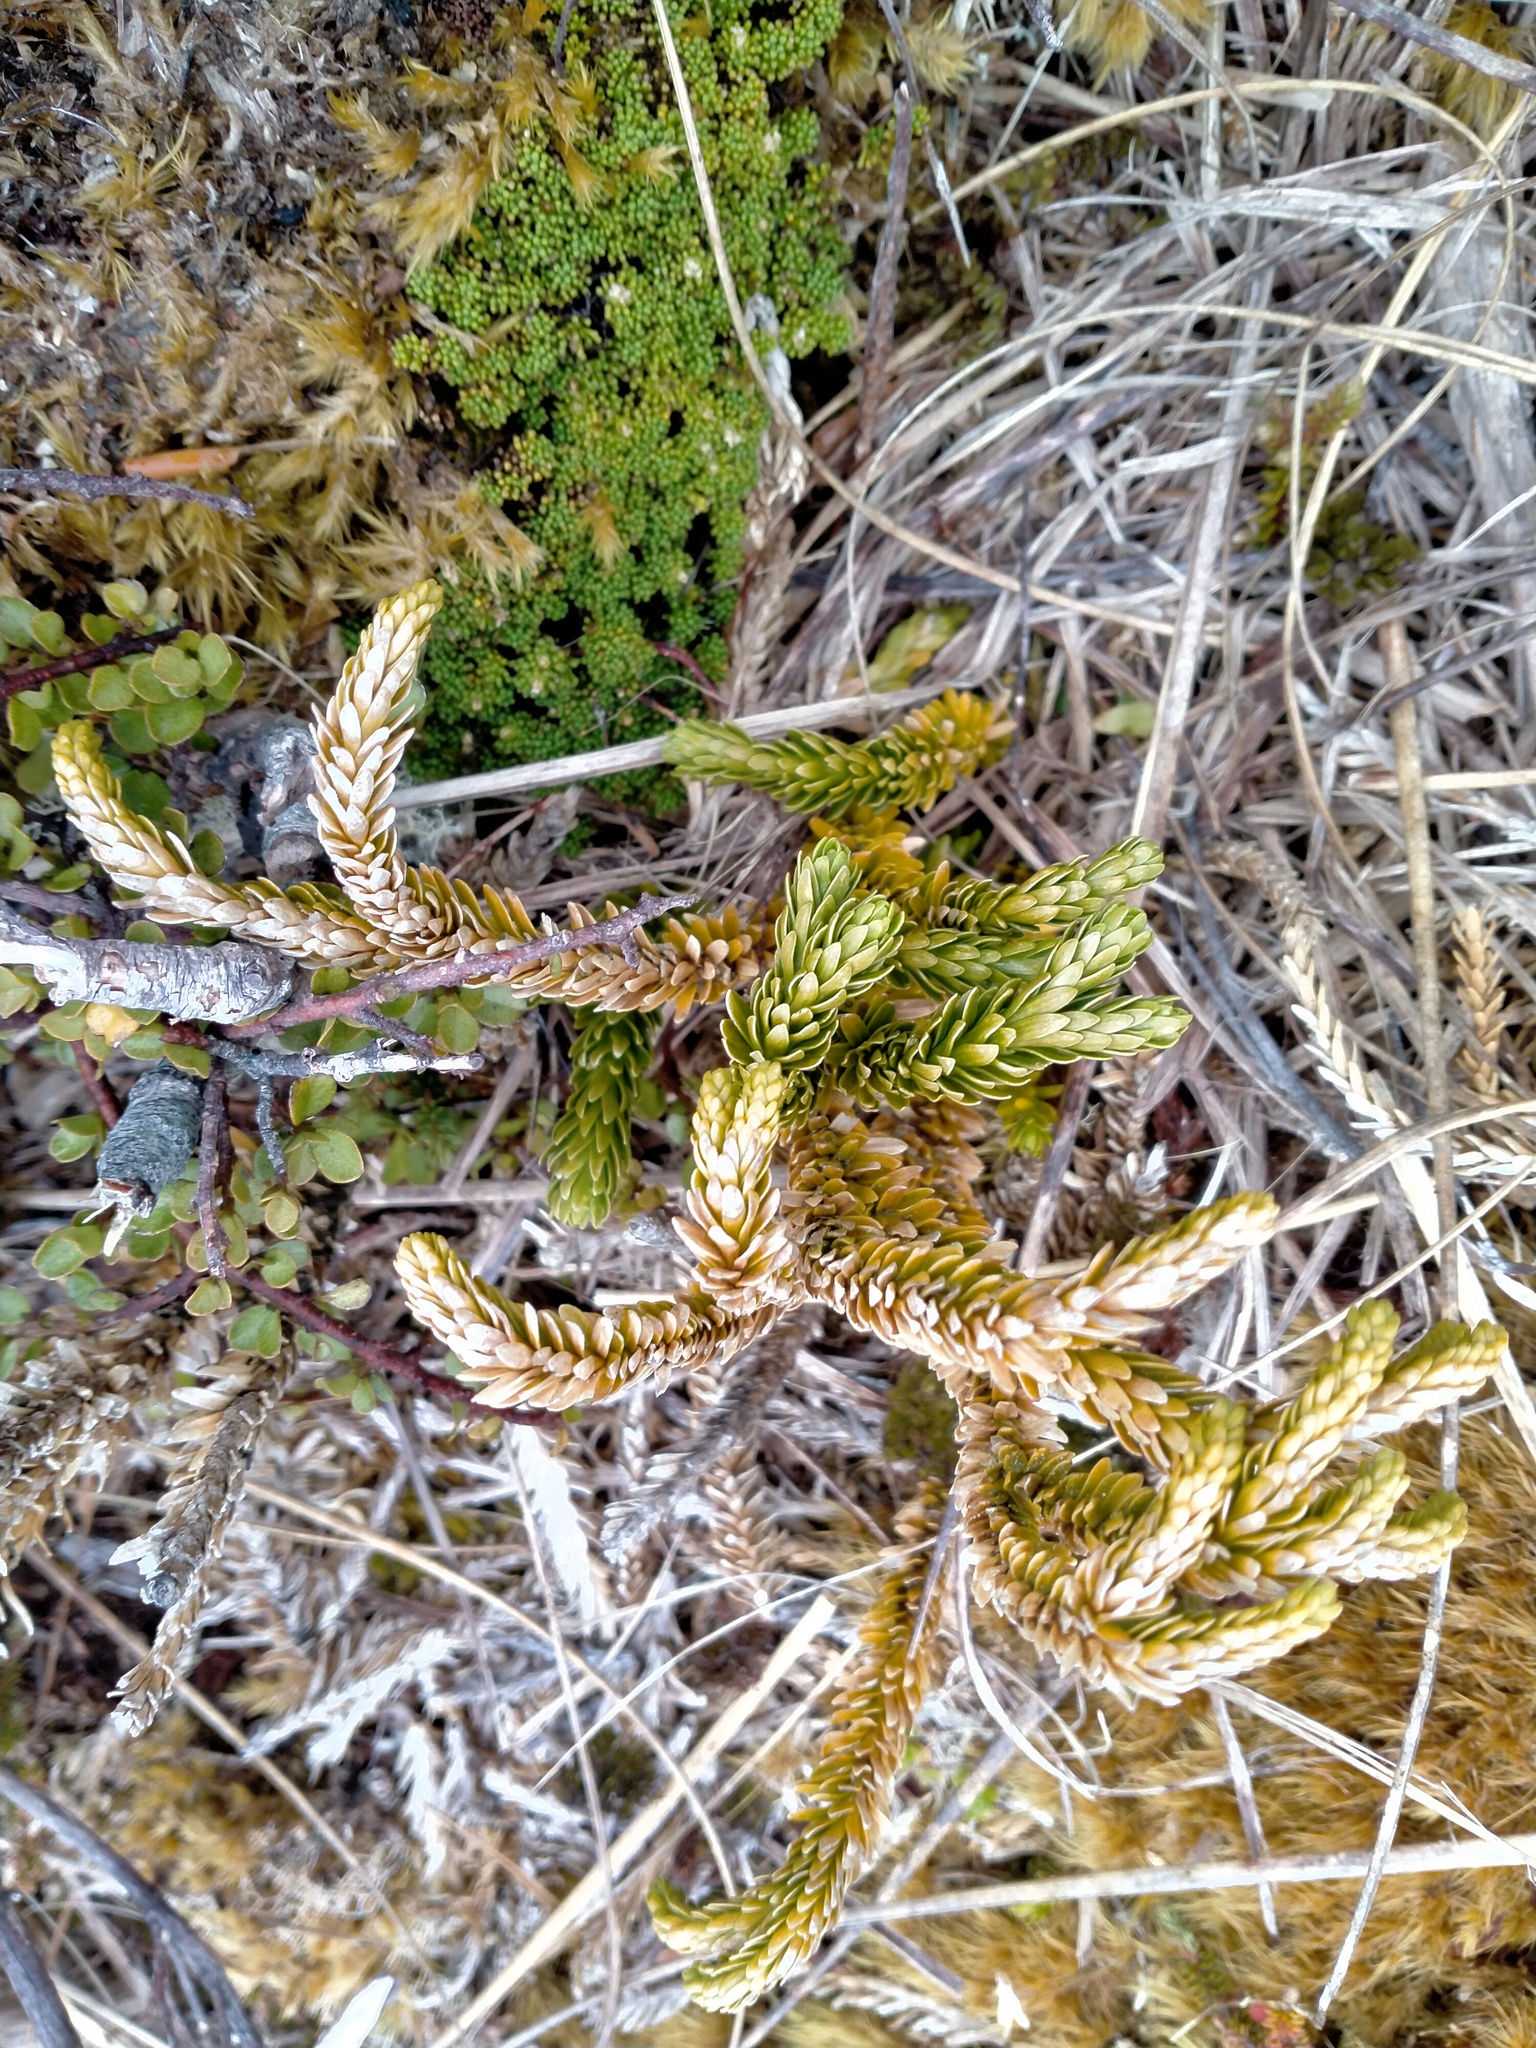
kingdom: Plantae
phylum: Tracheophyta
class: Lycopodiopsida
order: Lycopodiales
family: Lycopodiaceae
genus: Huperzia
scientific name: Huperzia australiana
